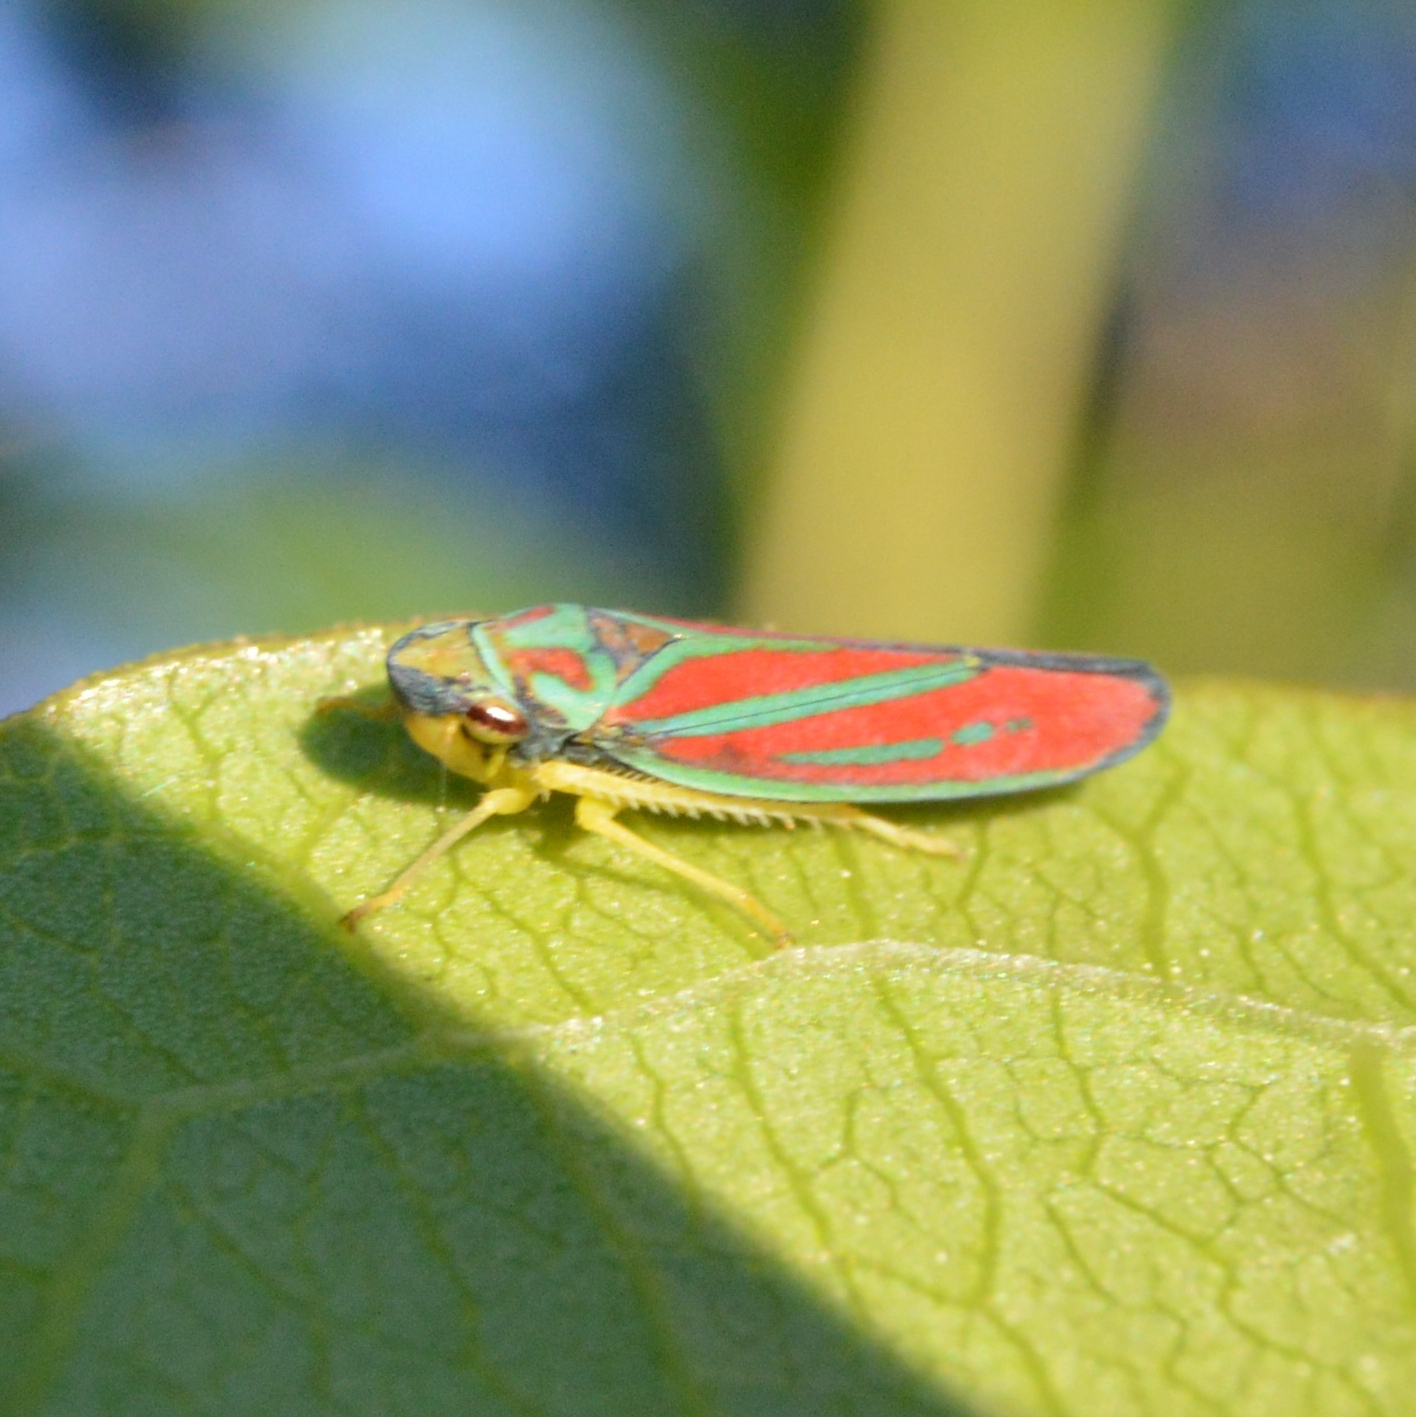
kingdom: Animalia
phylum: Arthropoda
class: Insecta
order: Hemiptera
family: Cicadellidae
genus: Graphocephala
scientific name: Graphocephala coccinea
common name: Candy-striped leafhopper
